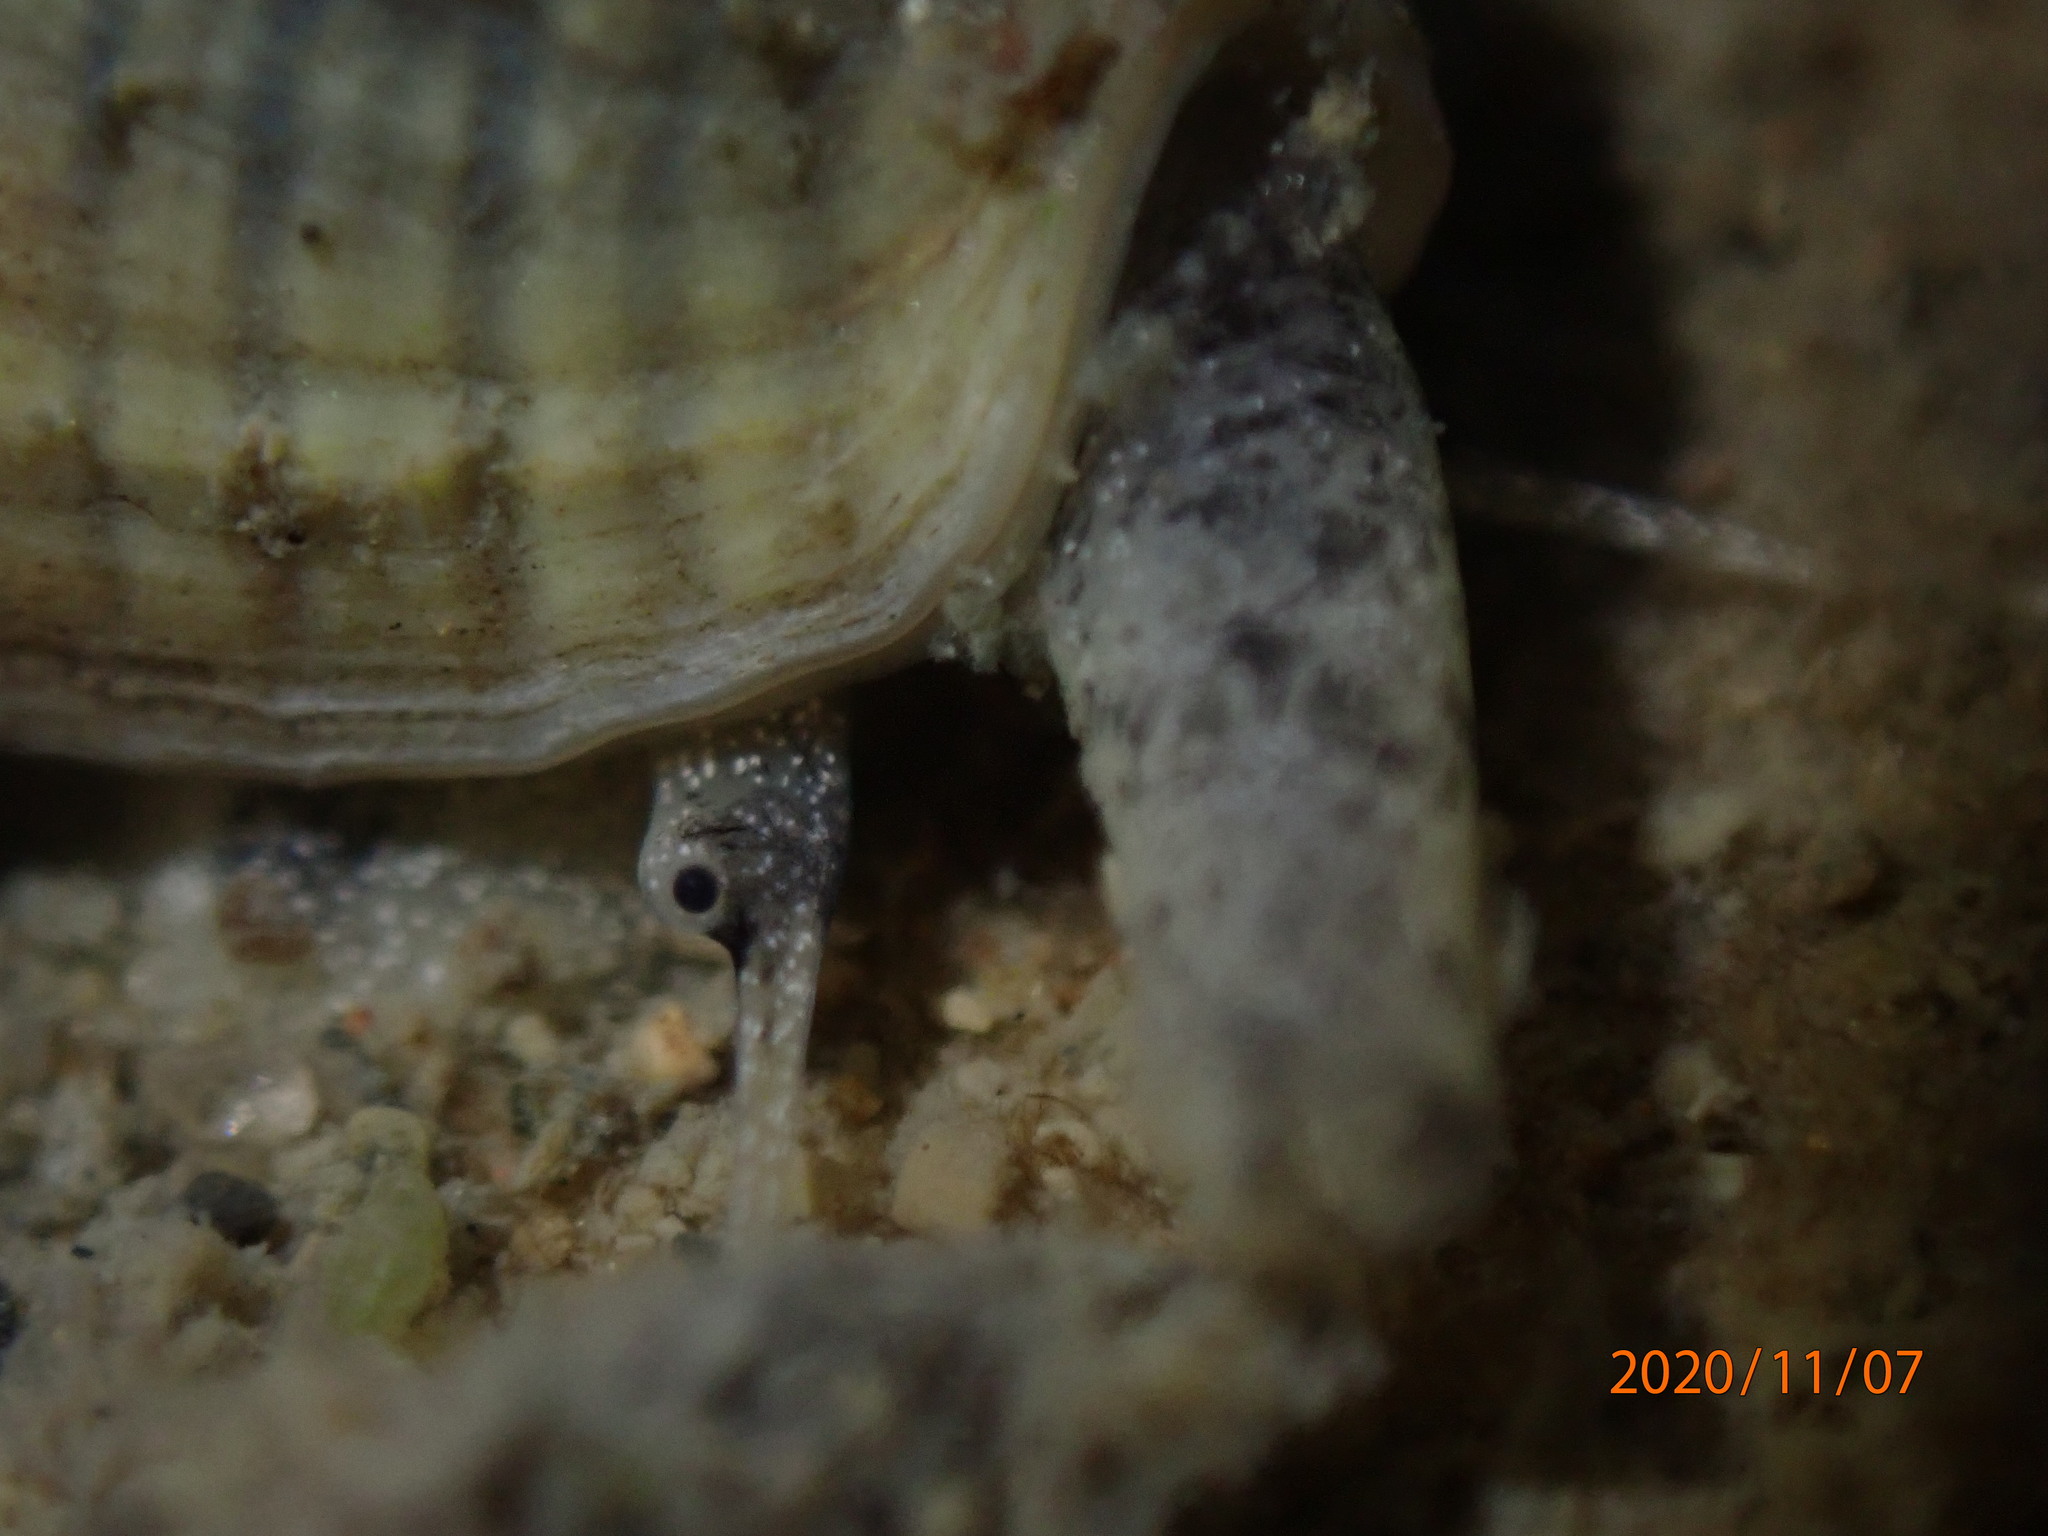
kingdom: Animalia
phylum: Mollusca
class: Gastropoda
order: Neogastropoda
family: Cominellidae
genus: Cominella
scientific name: Cominella glandiformis
